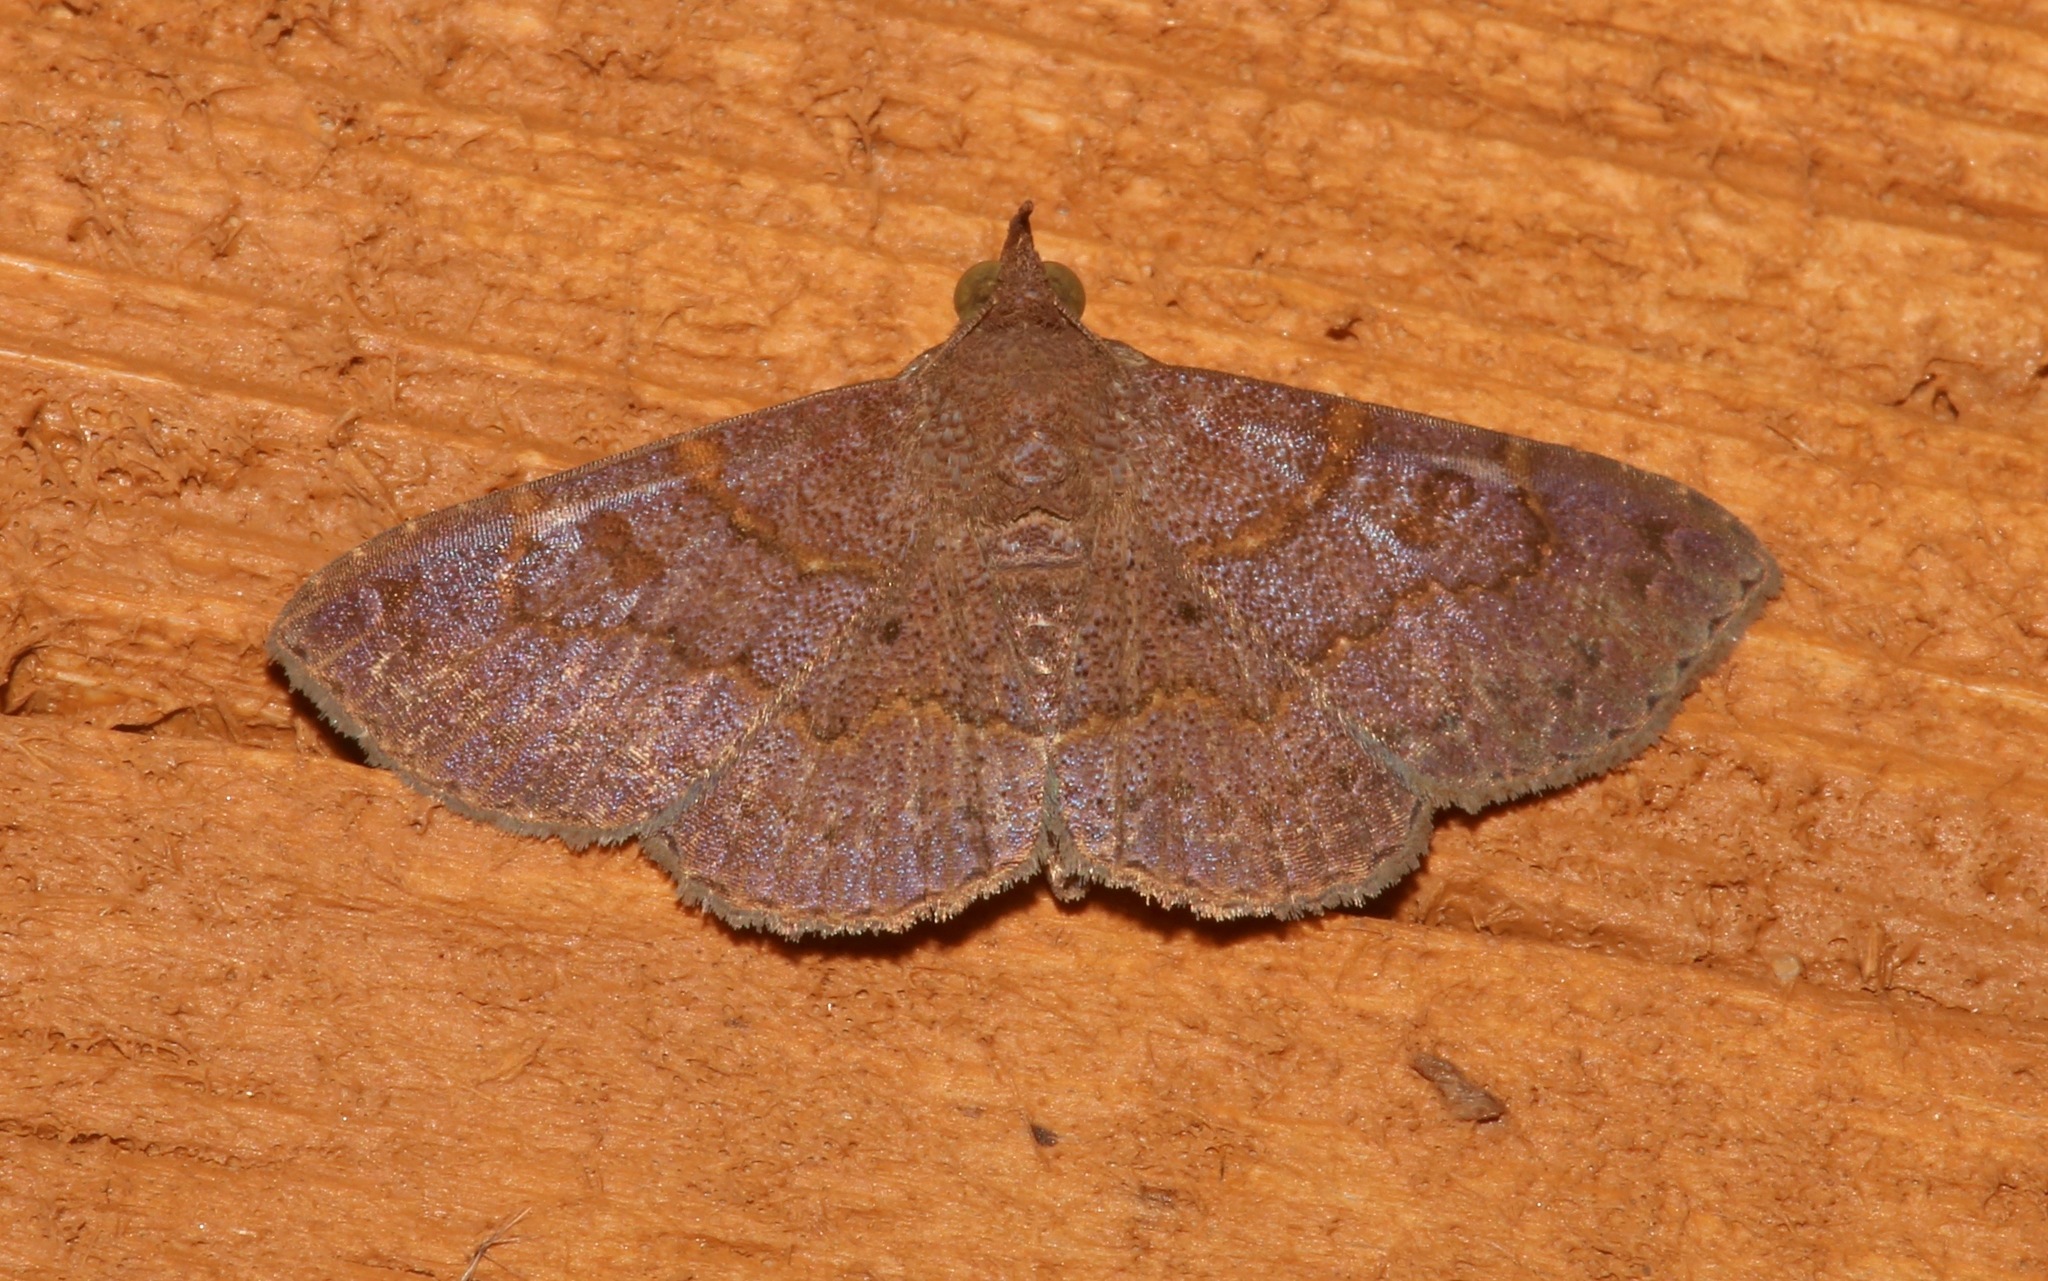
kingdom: Animalia
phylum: Arthropoda
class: Insecta
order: Lepidoptera
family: Erebidae
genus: Antiblemma
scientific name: Antiblemma perva
